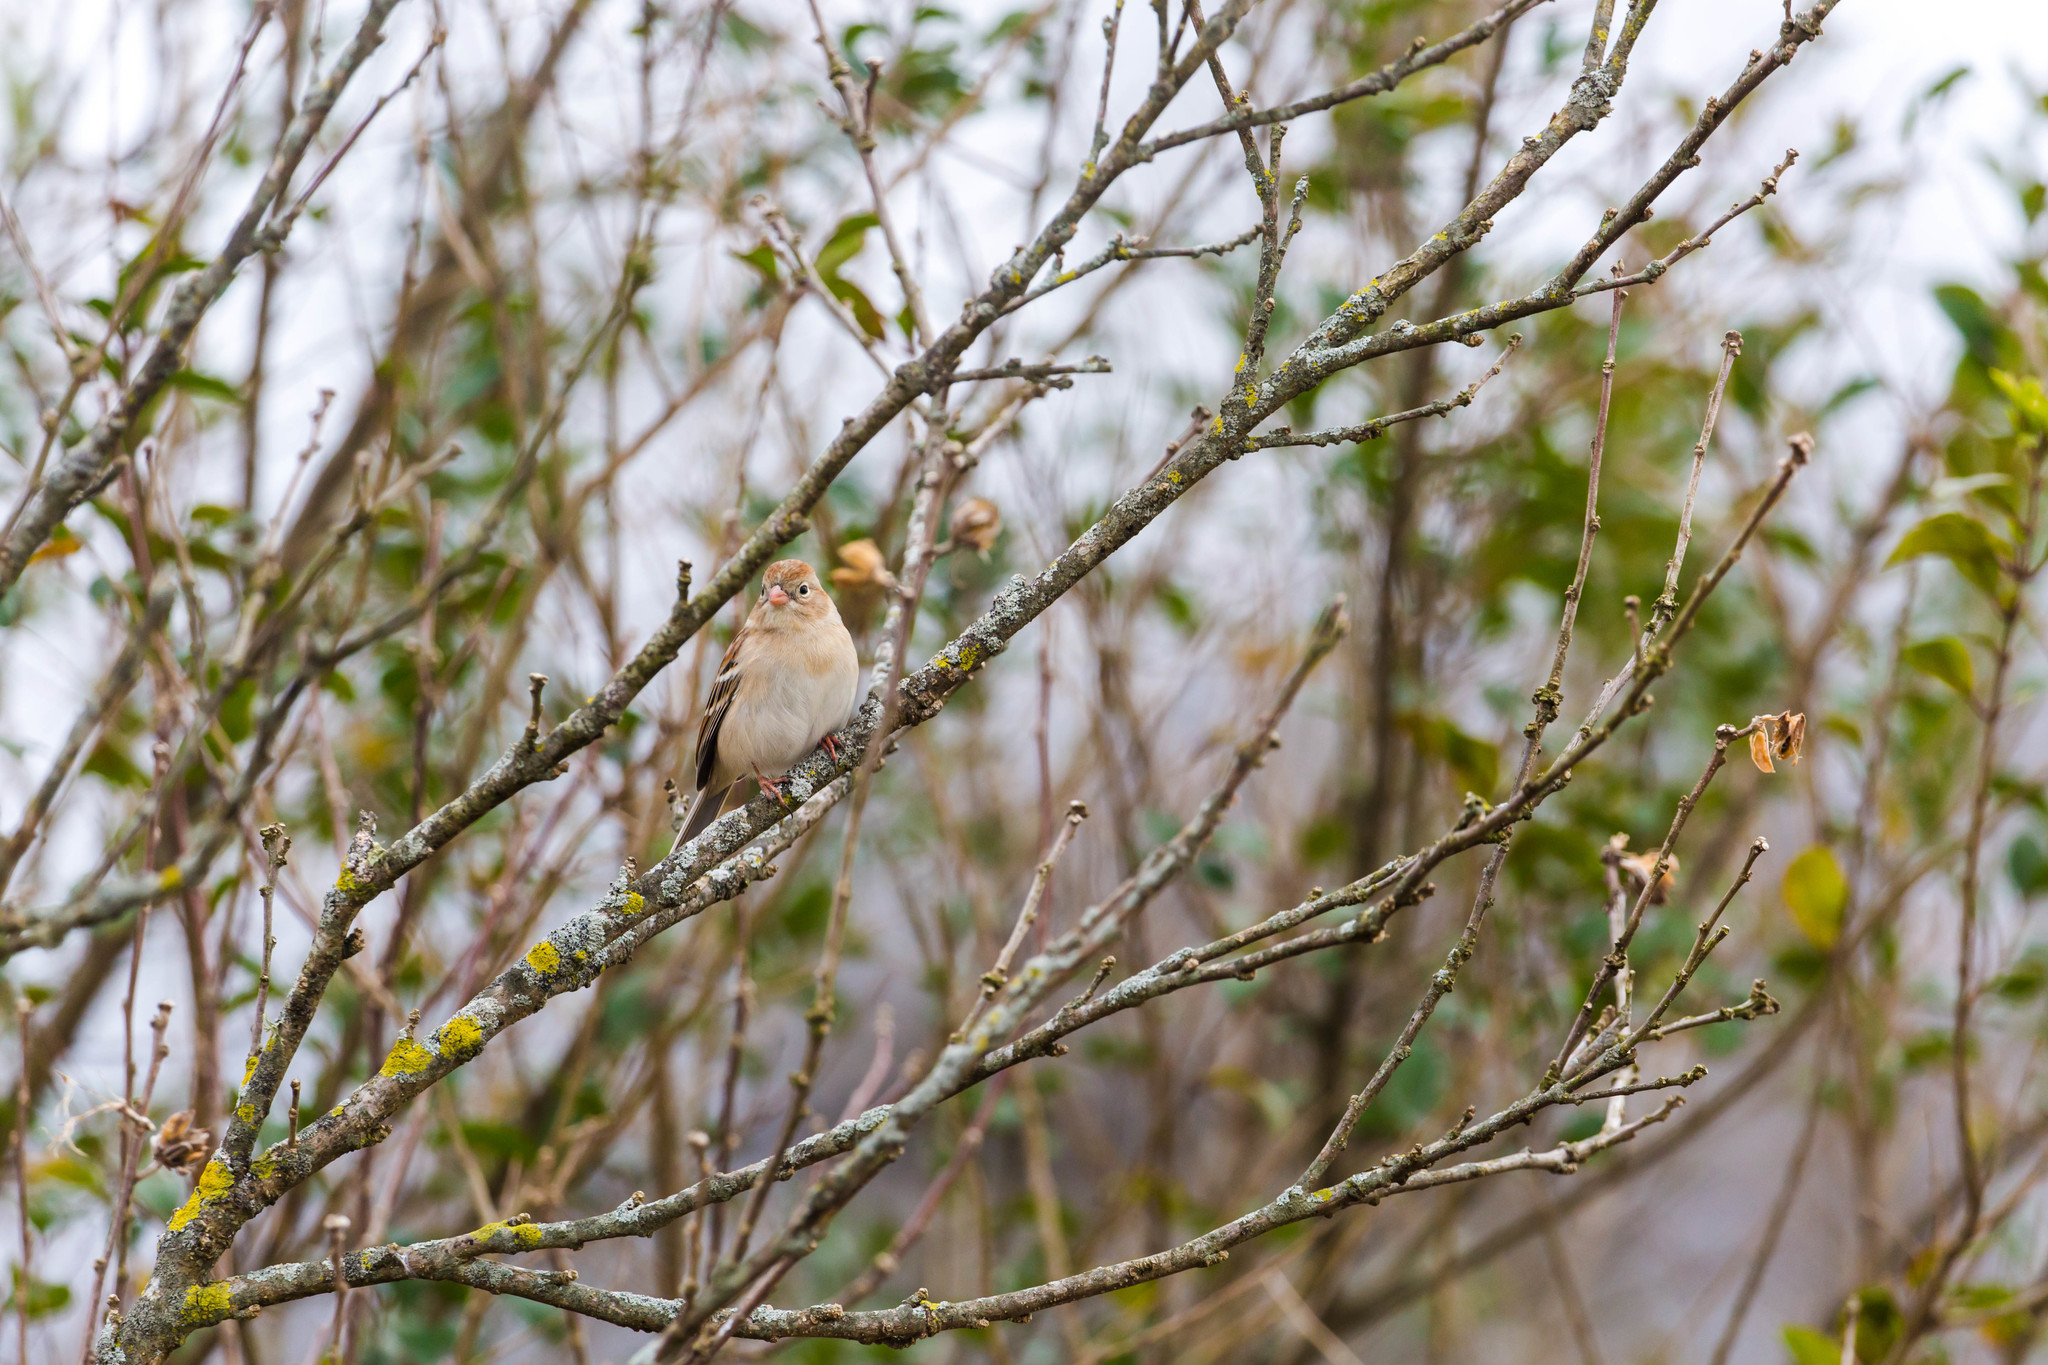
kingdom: Animalia
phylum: Chordata
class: Aves
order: Passeriformes
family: Passerellidae
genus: Spizella
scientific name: Spizella pusilla
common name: Field sparrow
